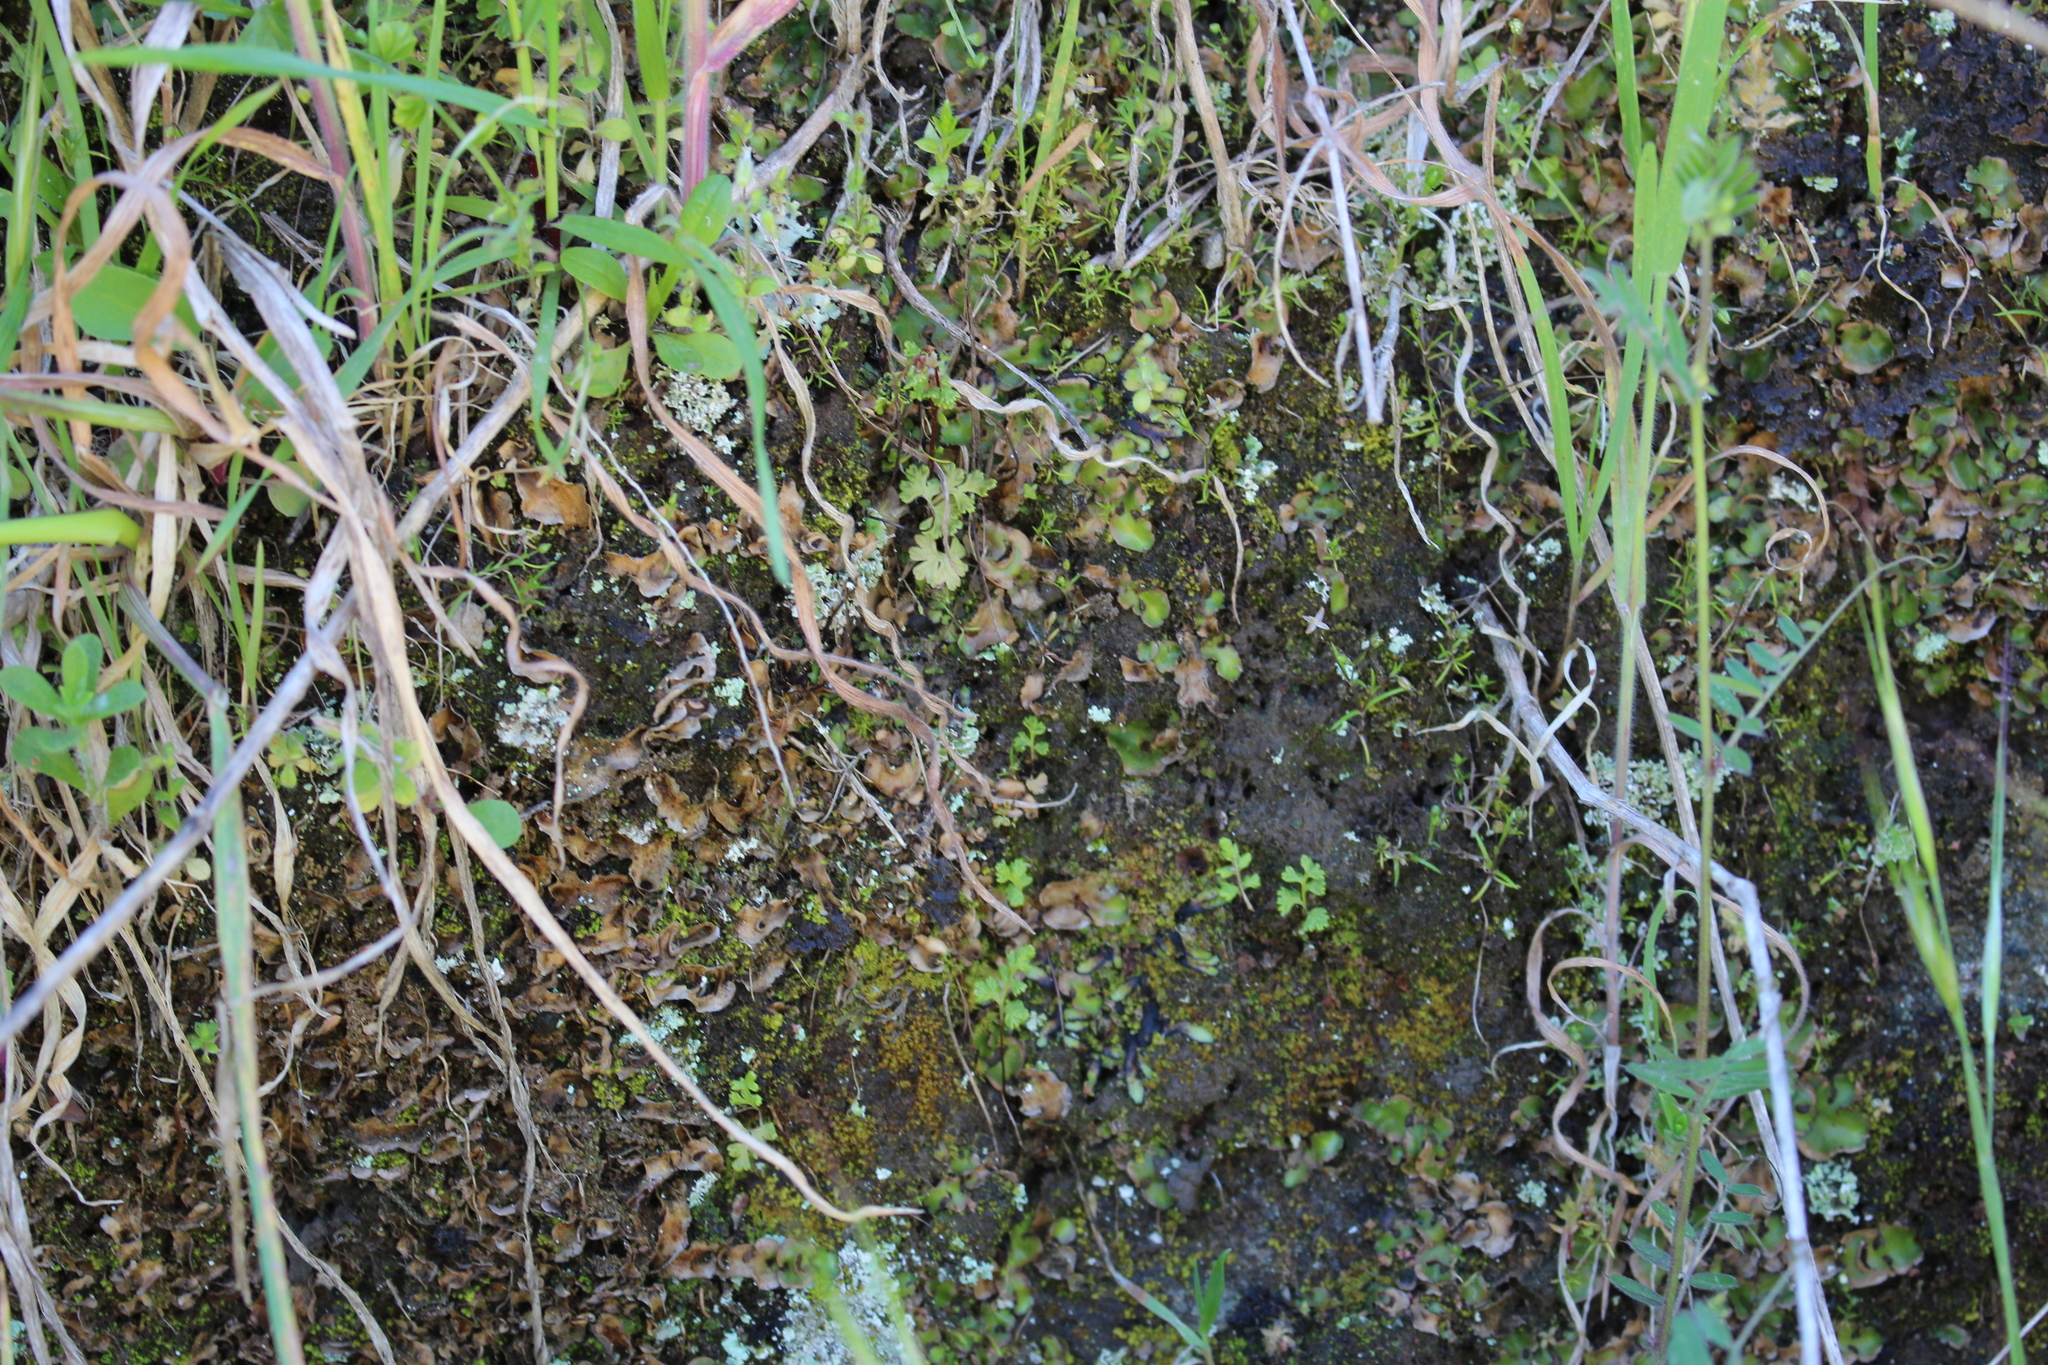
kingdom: Plantae
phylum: Tracheophyta
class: Polypodiopsida
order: Polypodiales
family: Pteridaceae
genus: Anogramma
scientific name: Anogramma leptophylla
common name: Jersey fern
